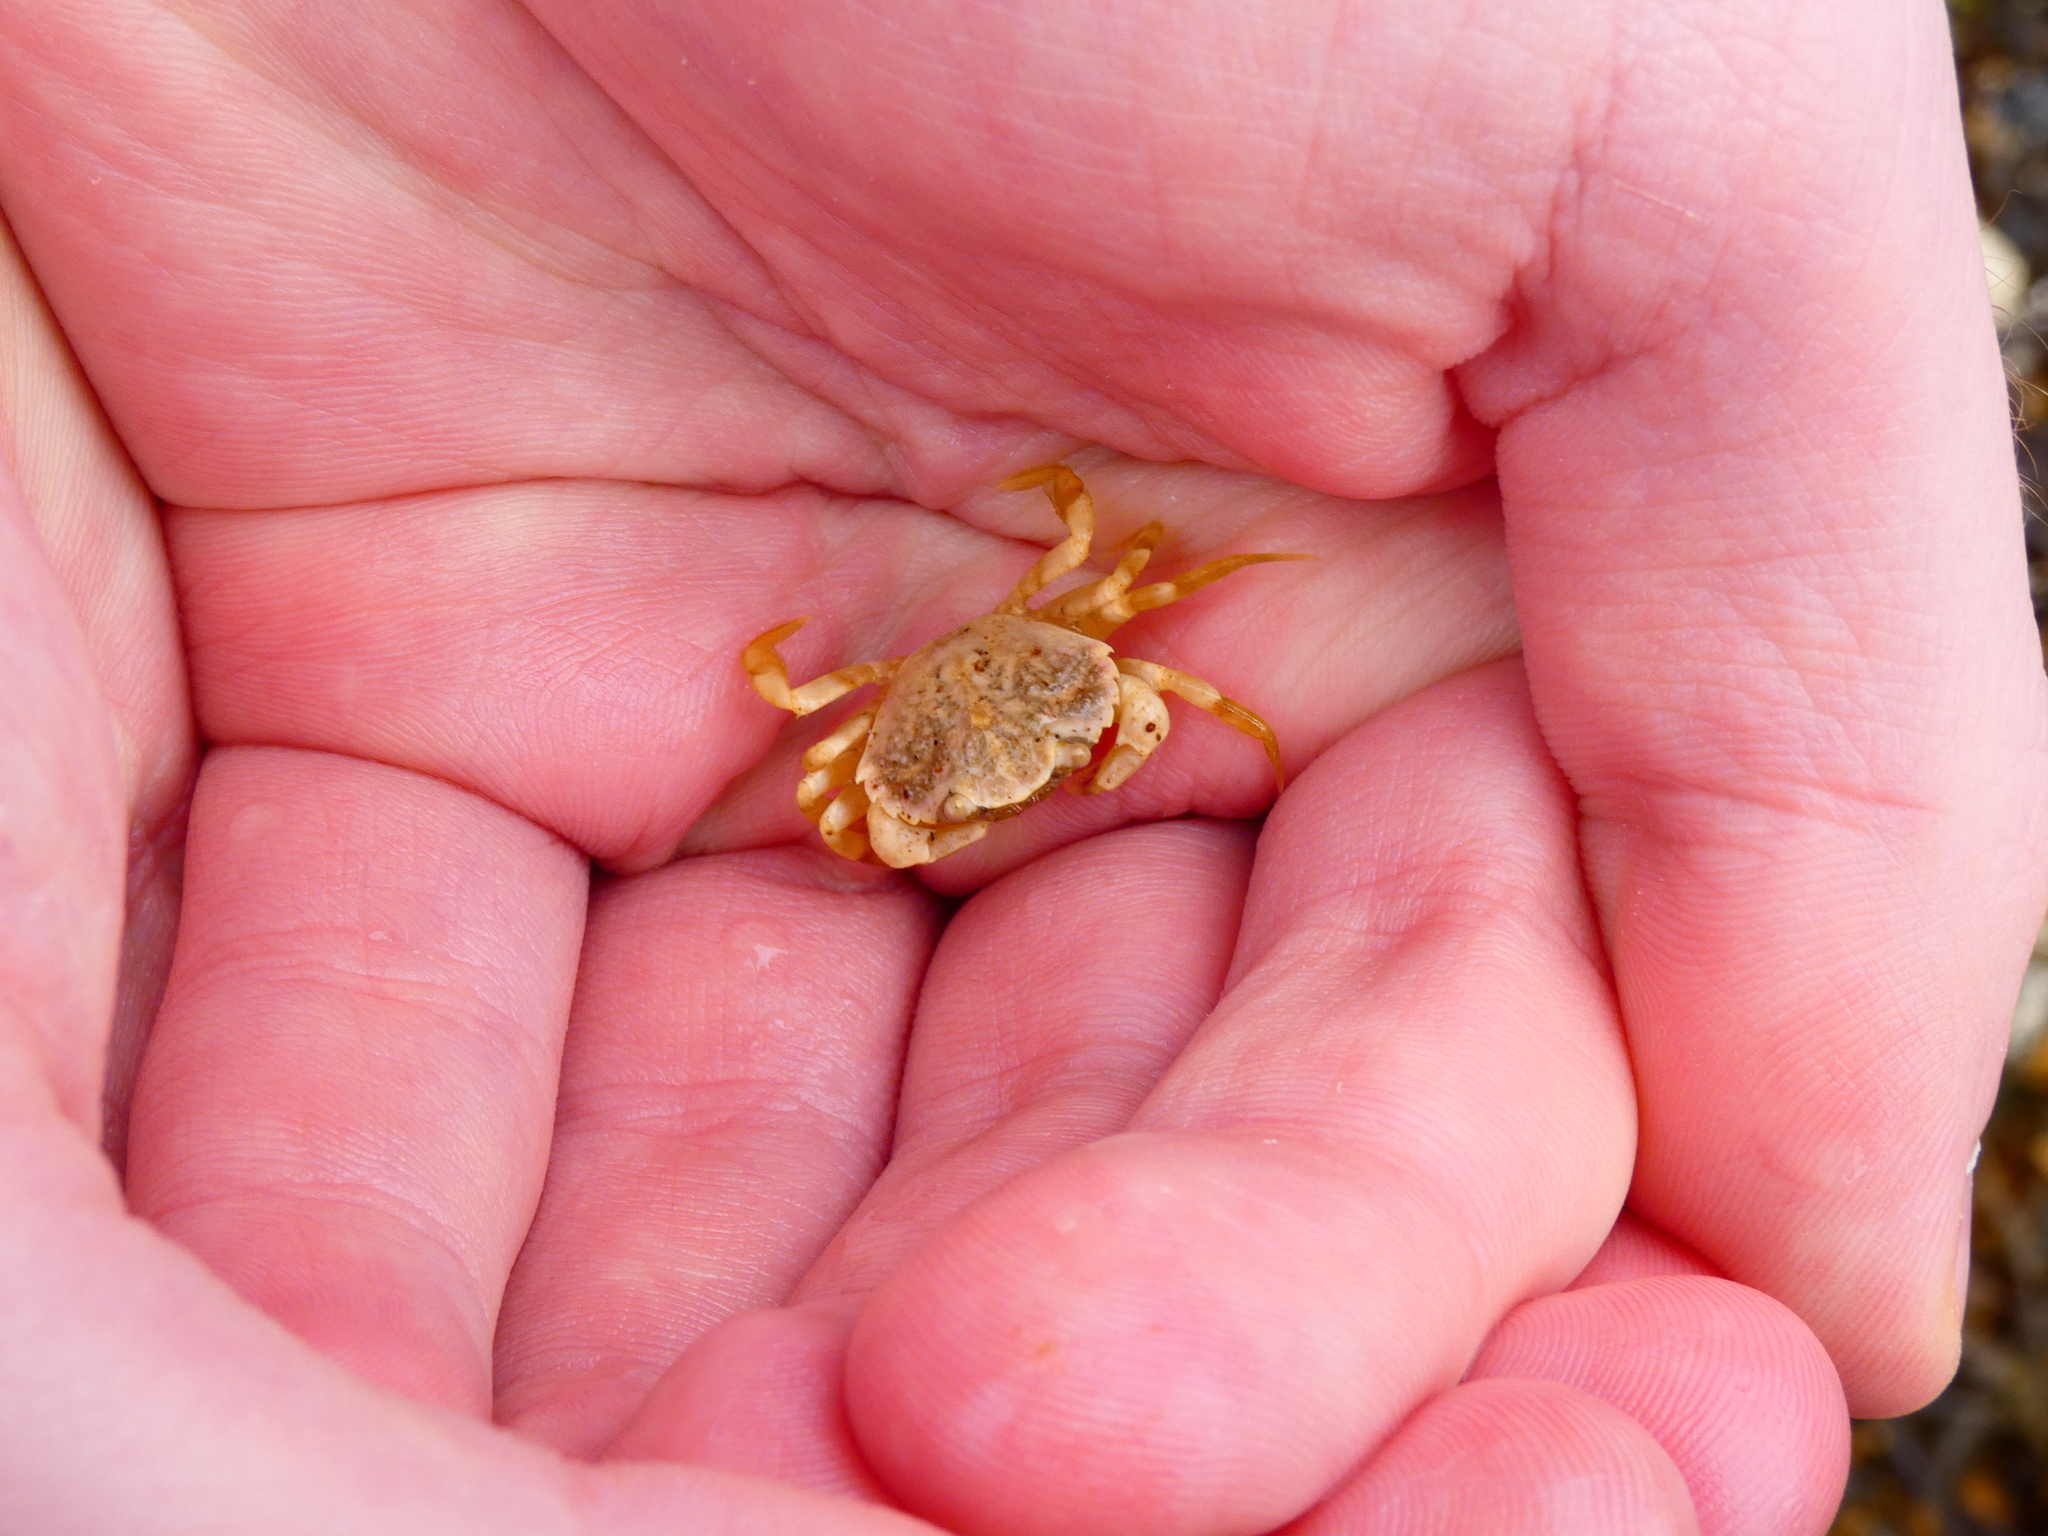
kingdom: Animalia
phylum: Arthropoda
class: Malacostraca
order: Decapoda
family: Carcinidae
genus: Carcinus
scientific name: Carcinus maenas
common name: European green crab
